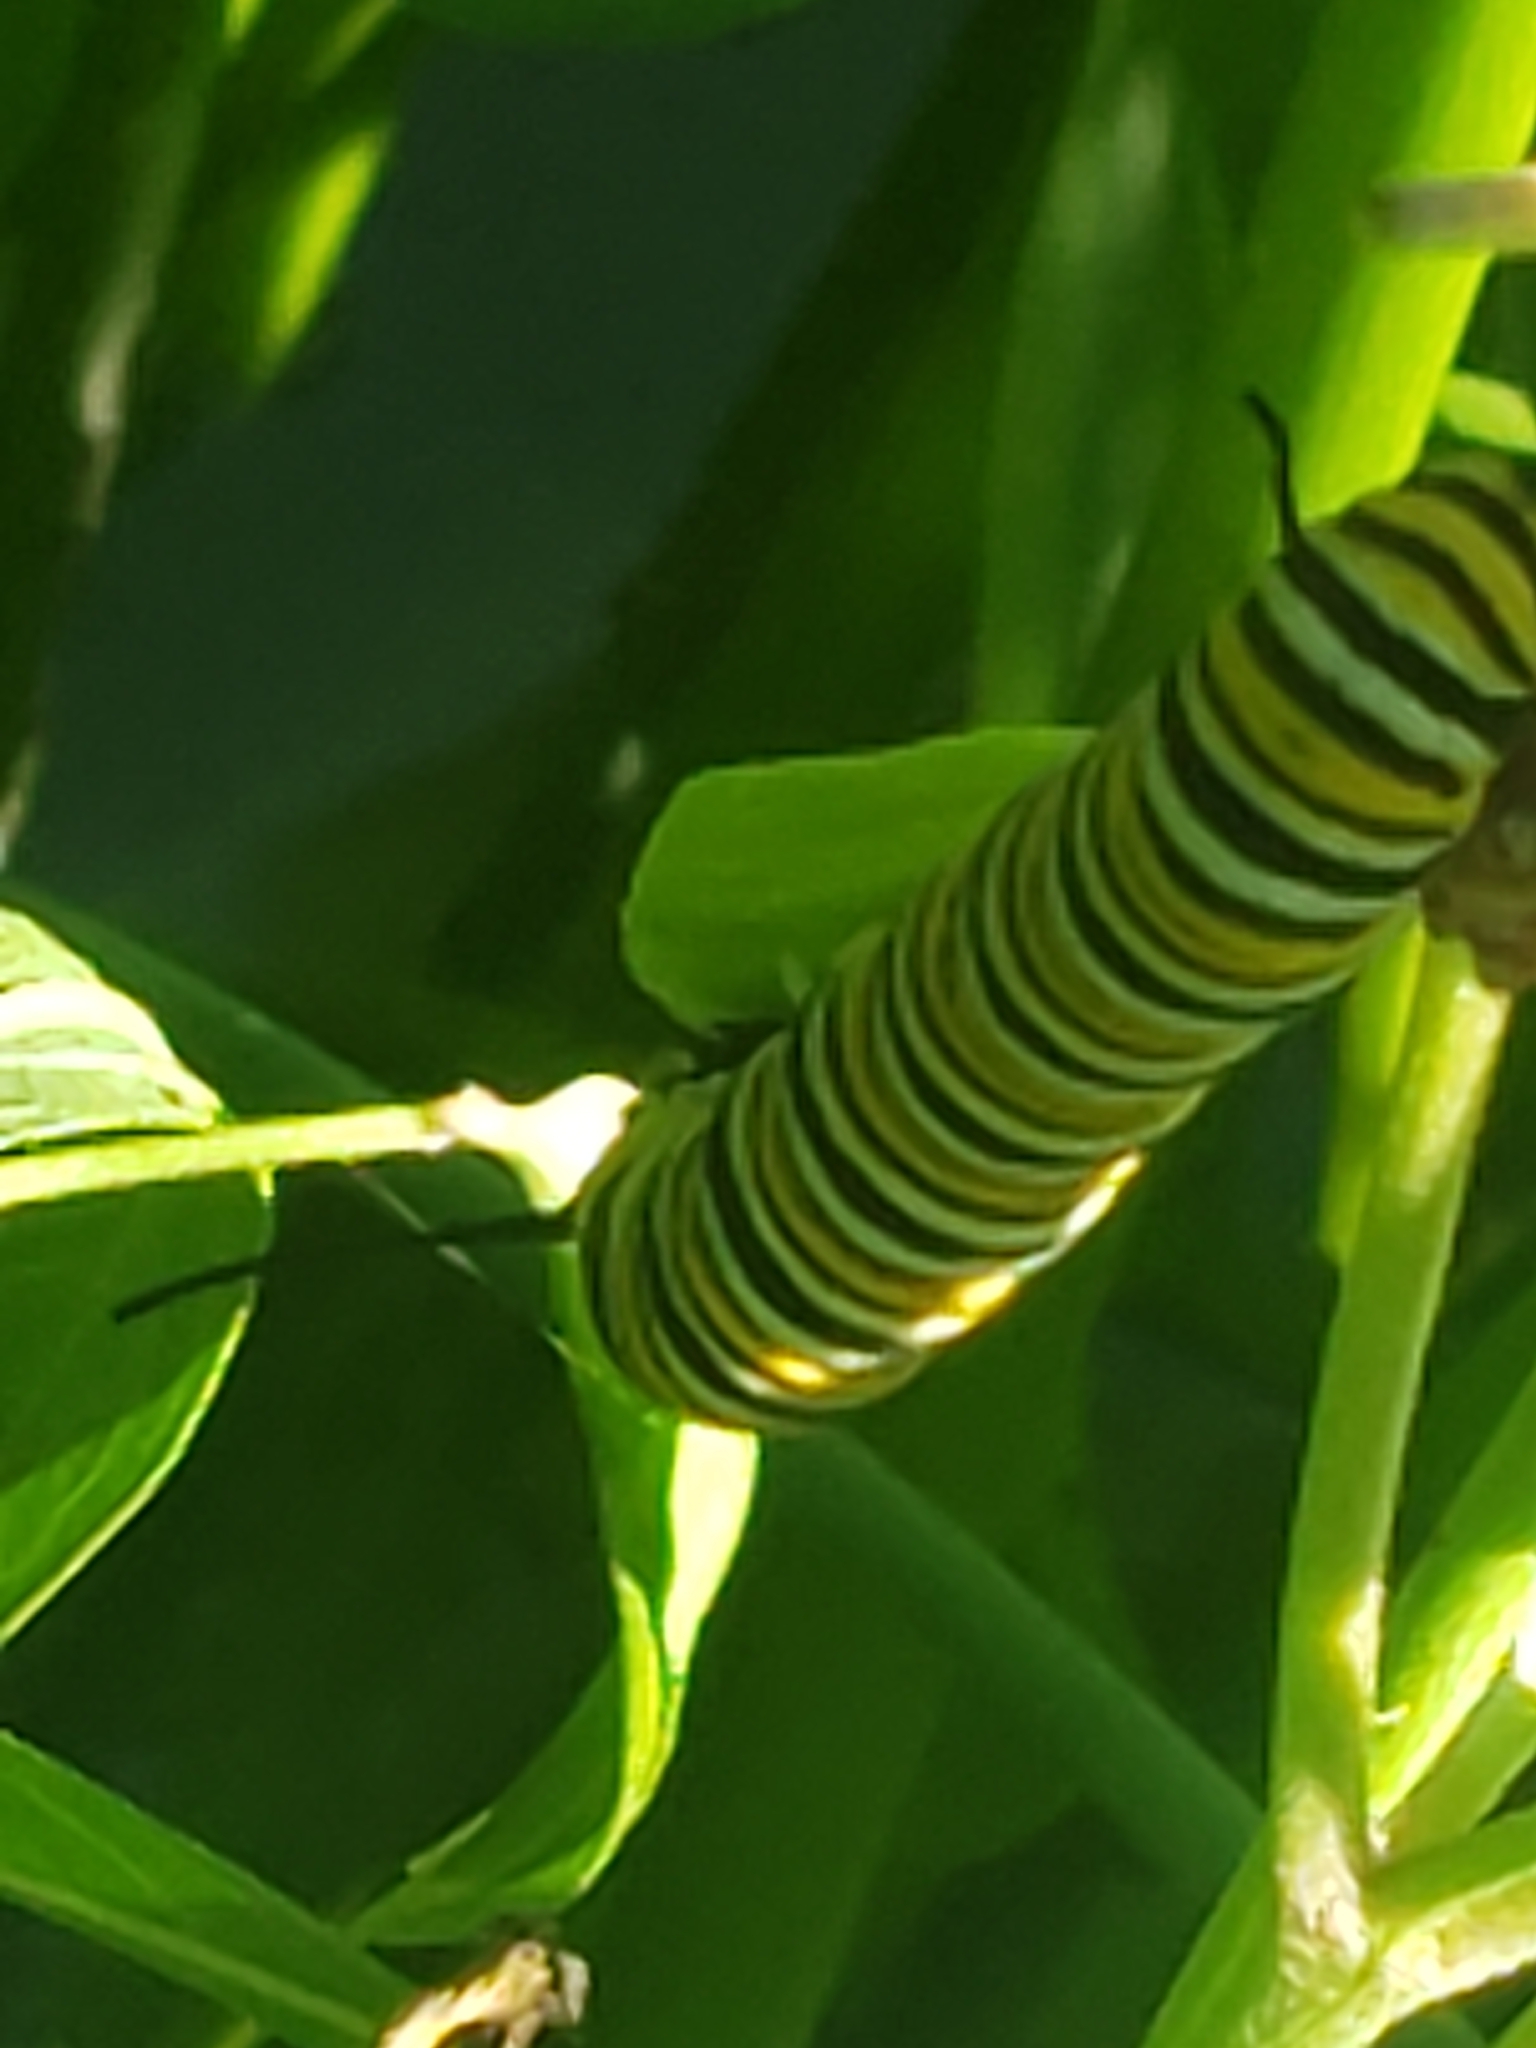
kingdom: Animalia
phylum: Arthropoda
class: Insecta
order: Lepidoptera
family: Nymphalidae
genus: Danaus
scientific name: Danaus plexippus
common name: Monarch
